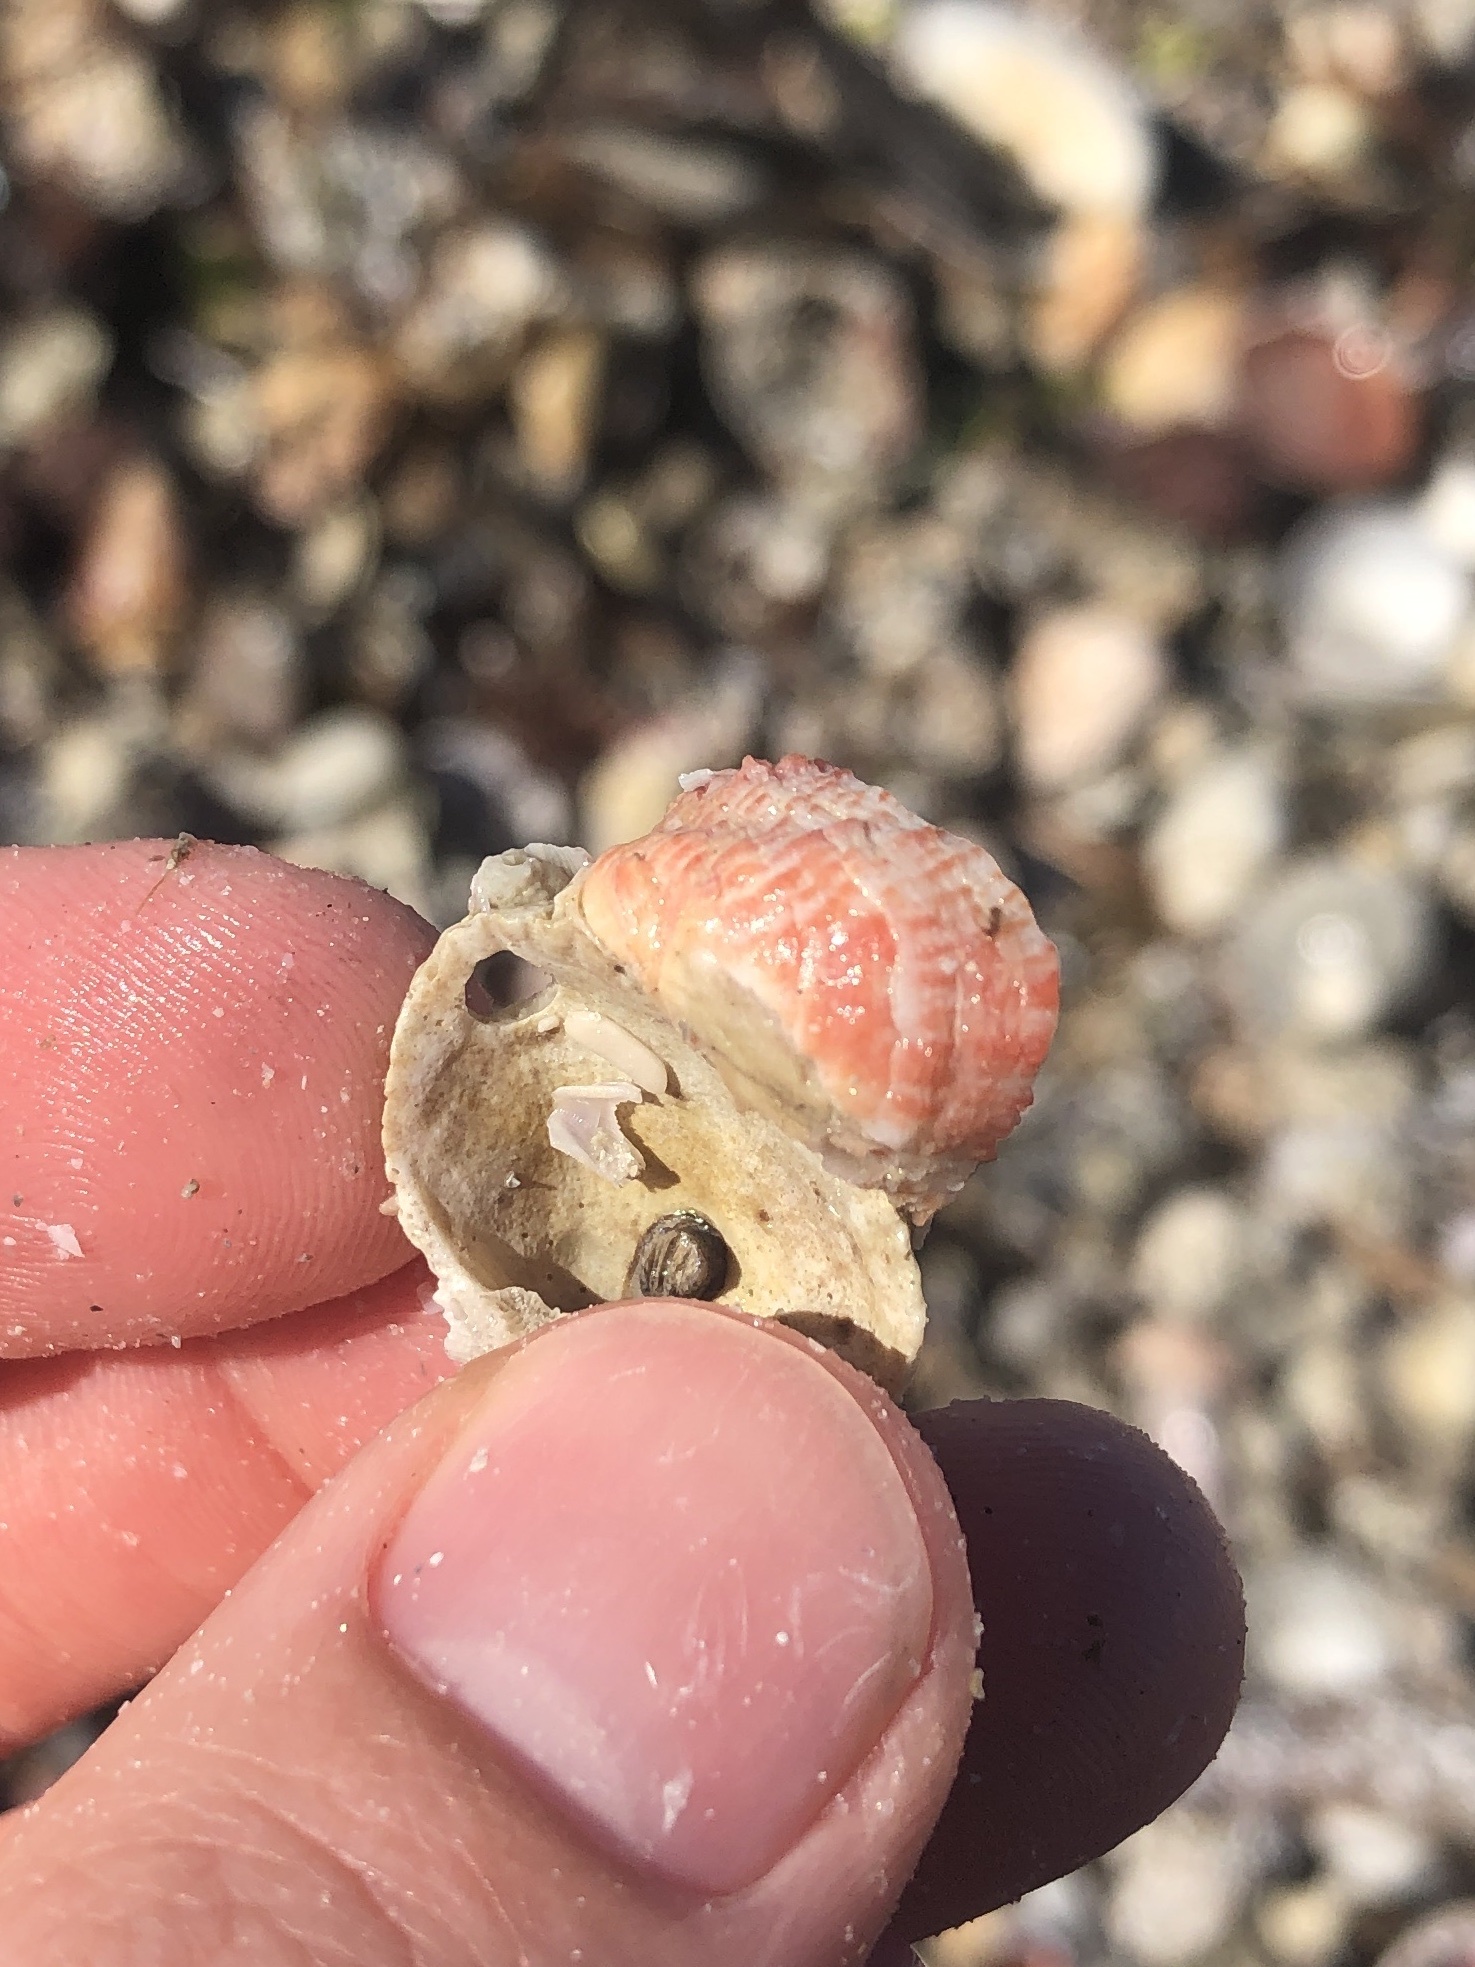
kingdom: Animalia
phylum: Mollusca
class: Bivalvia
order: Venerida
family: Chamidae
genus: Chama
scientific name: Chama congregata
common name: Corrugate jewelbox
